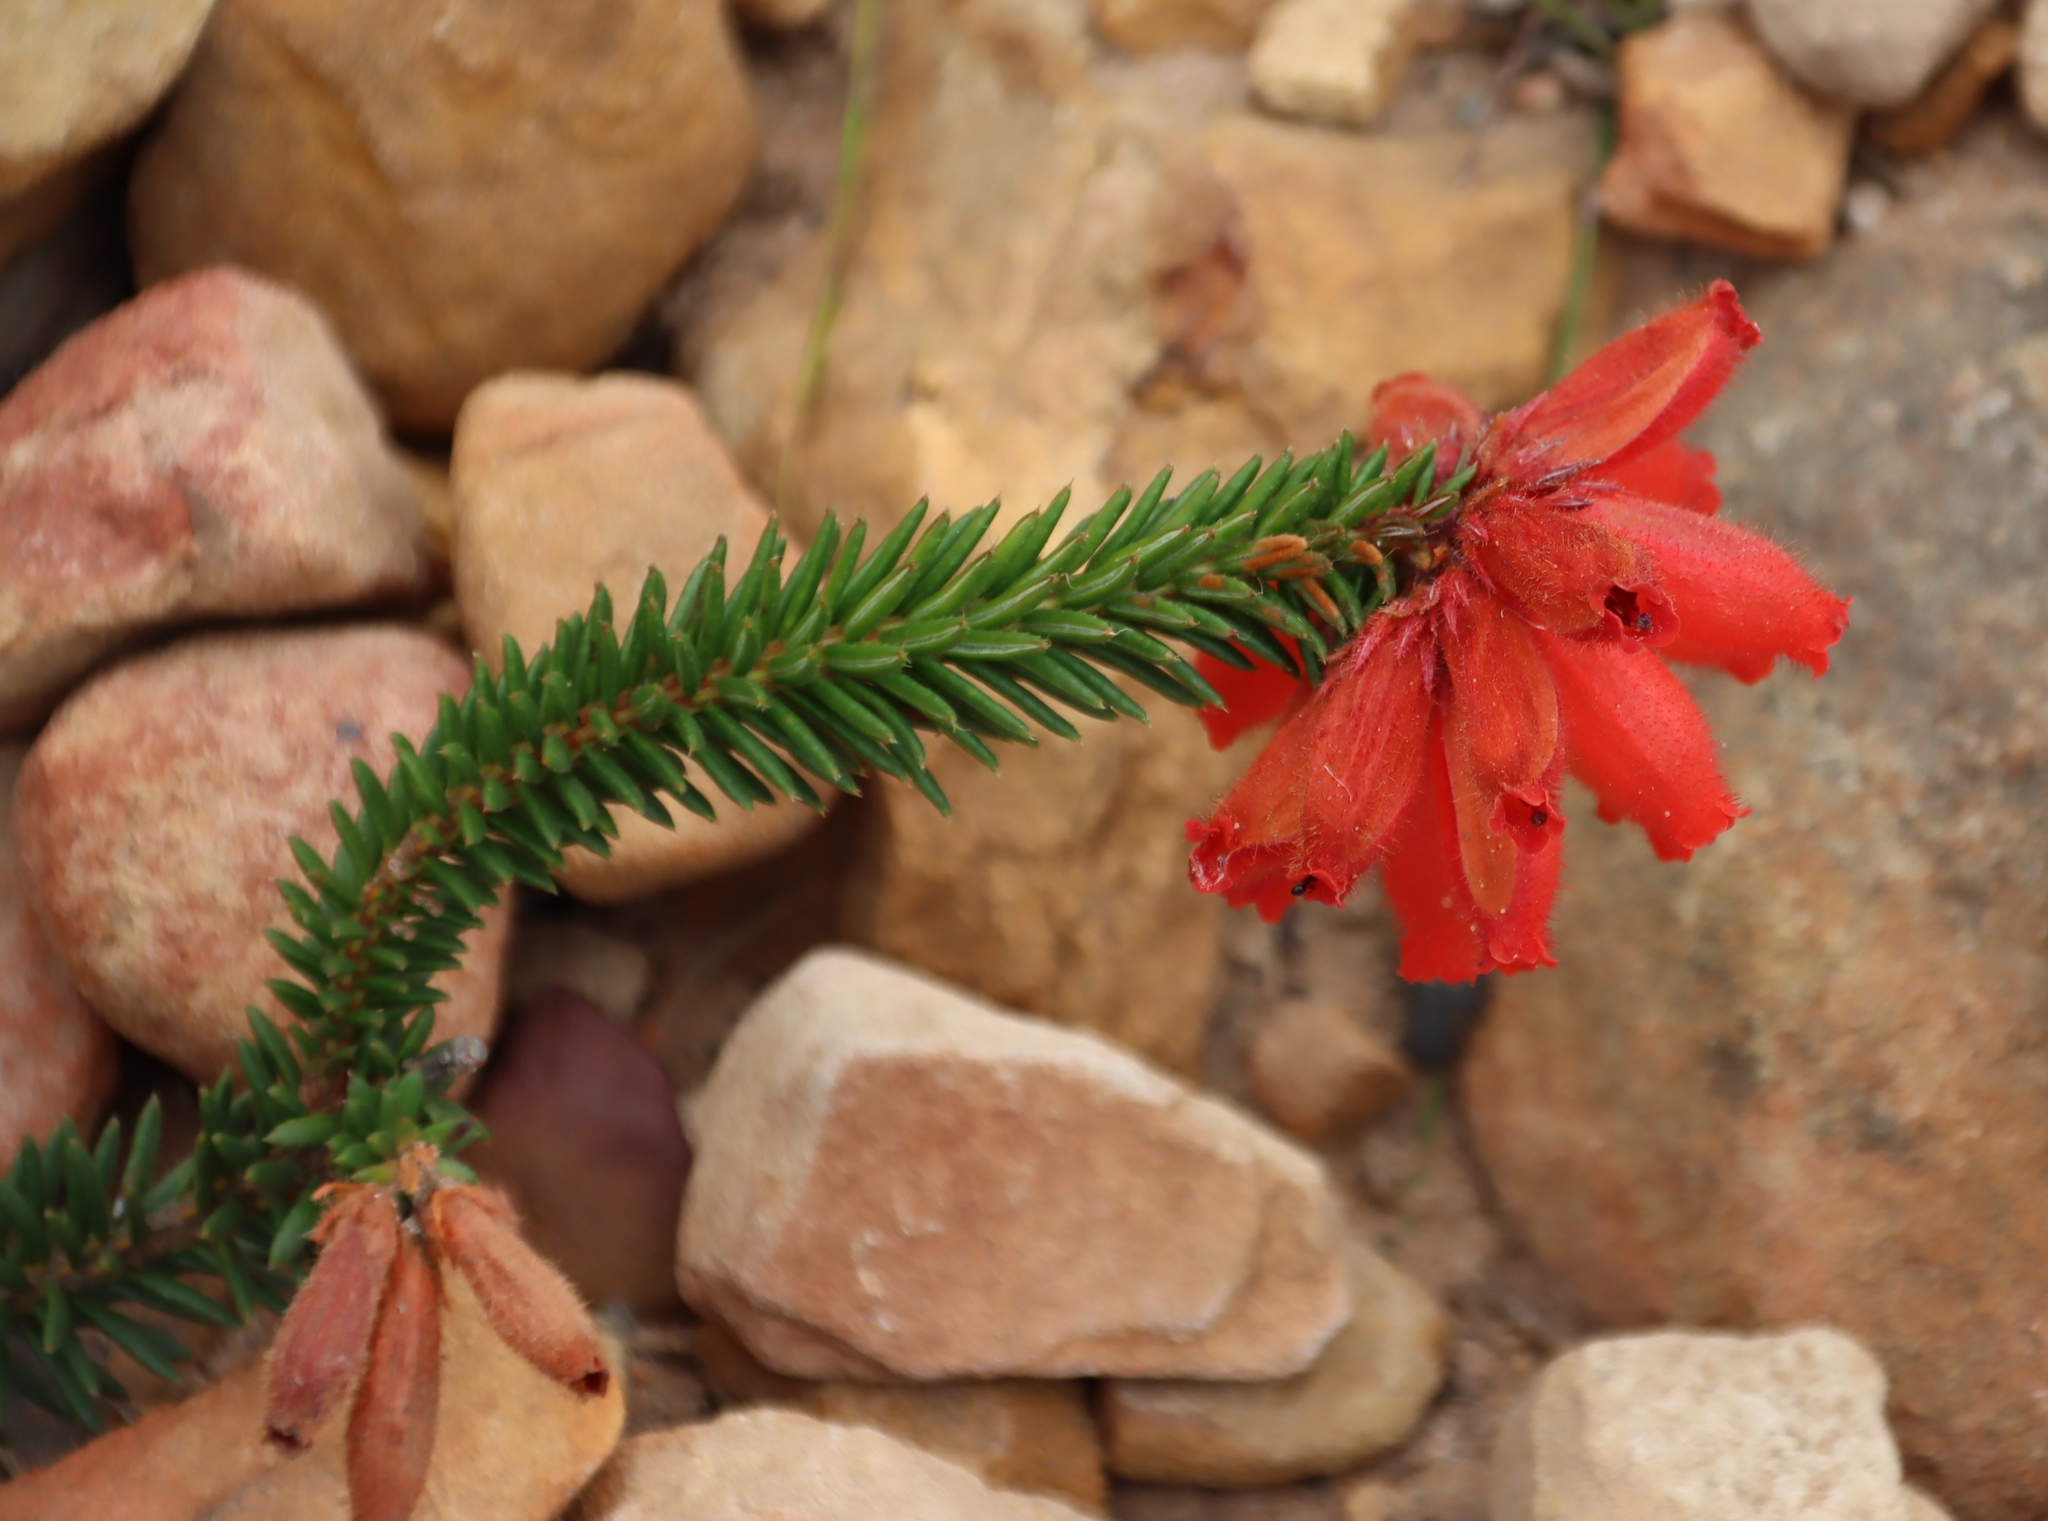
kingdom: Plantae
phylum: Tracheophyta
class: Magnoliopsida
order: Ericales
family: Ericaceae
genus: Erica
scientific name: Erica cerinthoides
